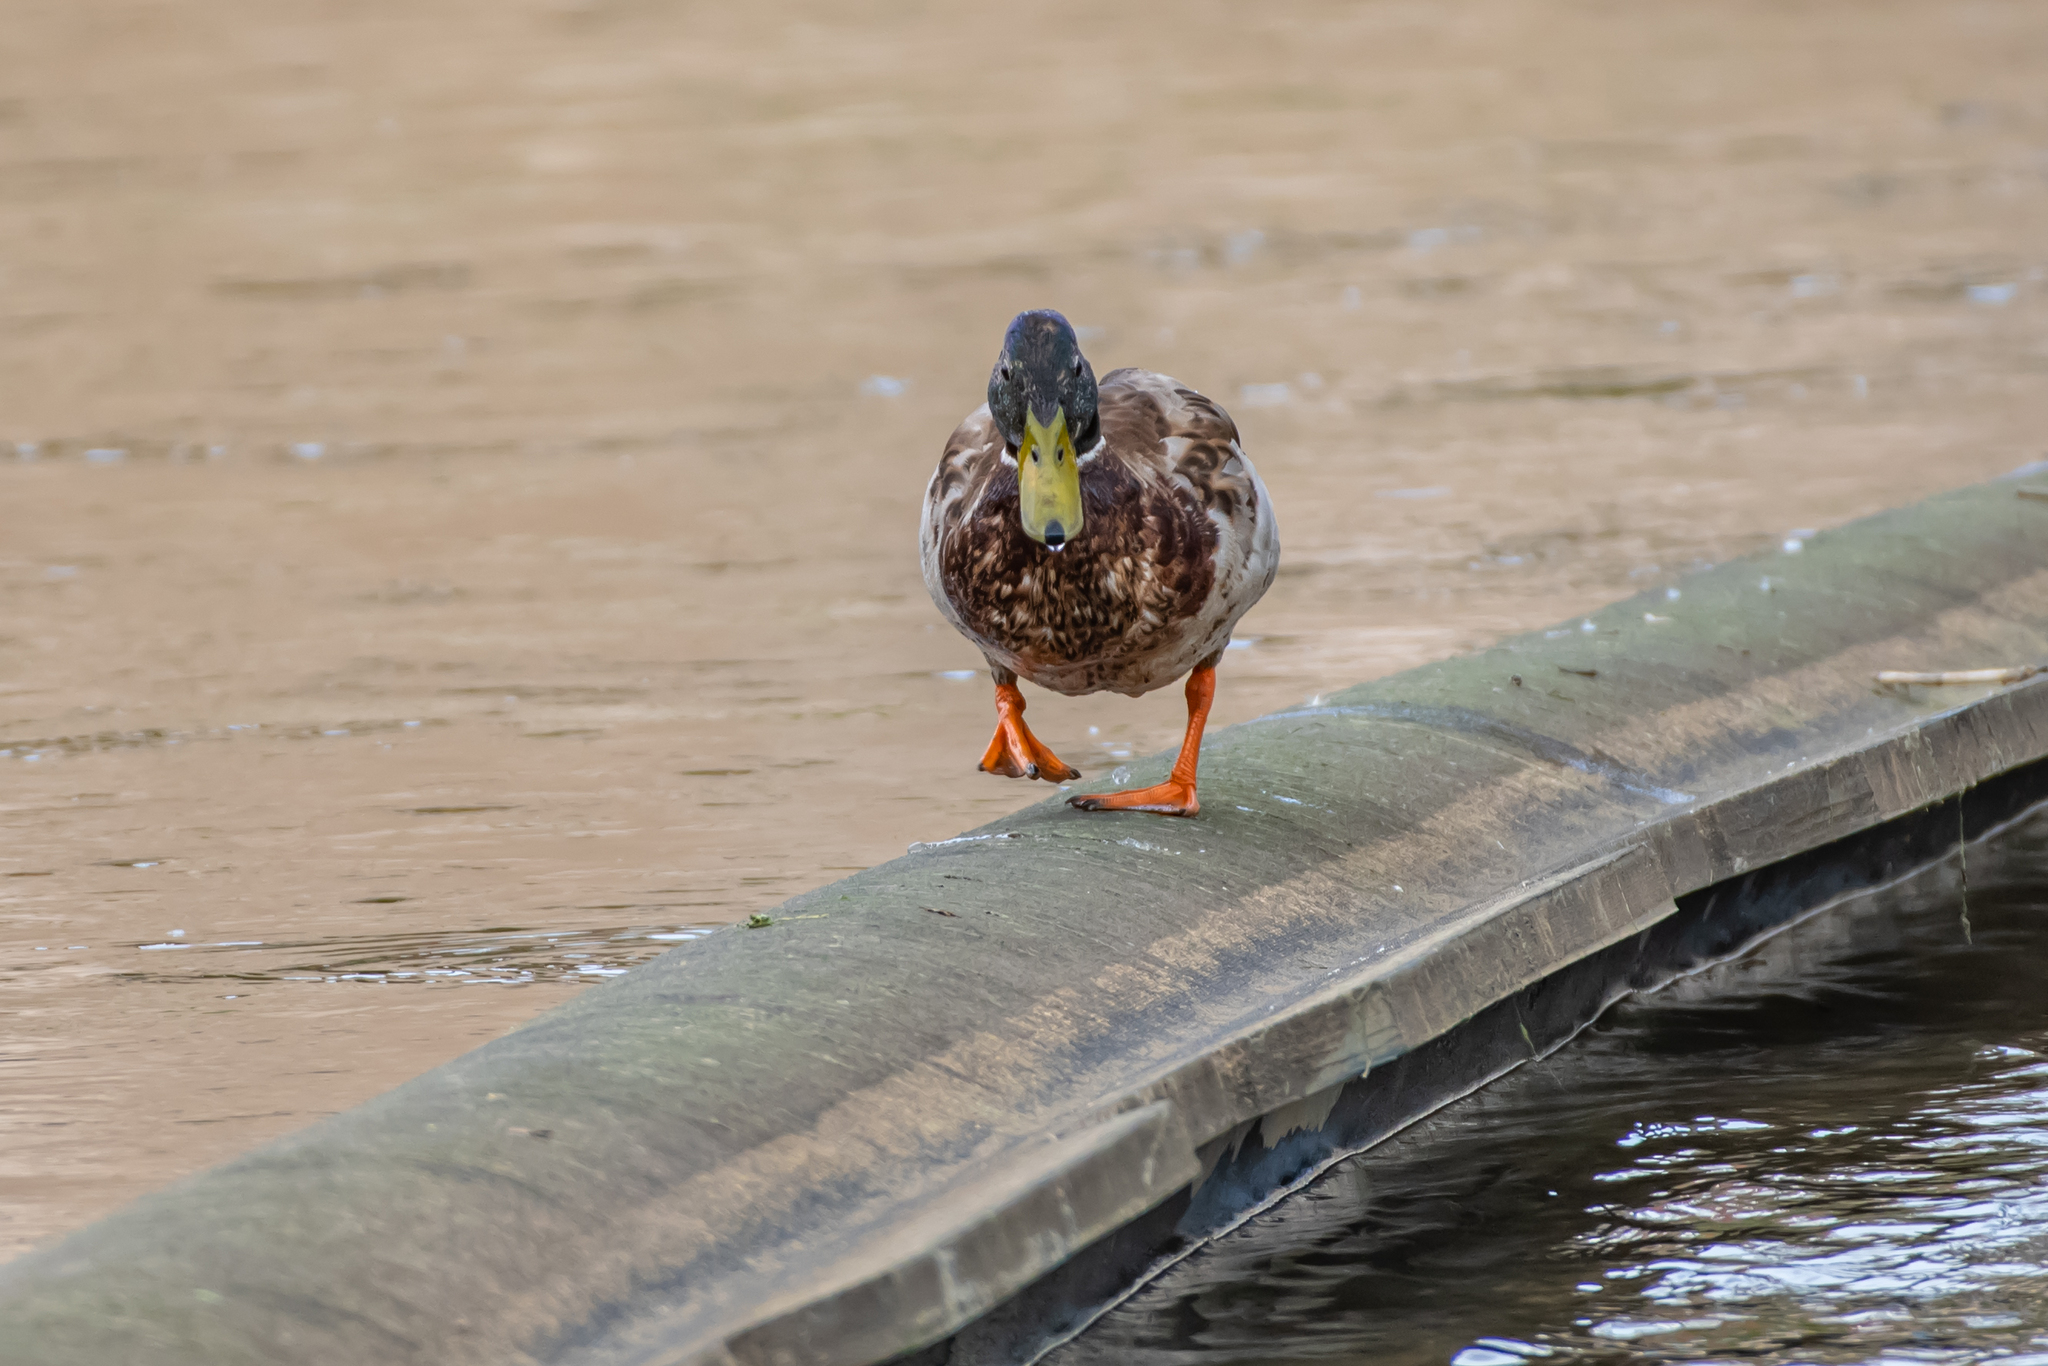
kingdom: Animalia
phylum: Chordata
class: Aves
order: Anseriformes
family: Anatidae
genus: Anas
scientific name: Anas platyrhynchos
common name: Mallard
